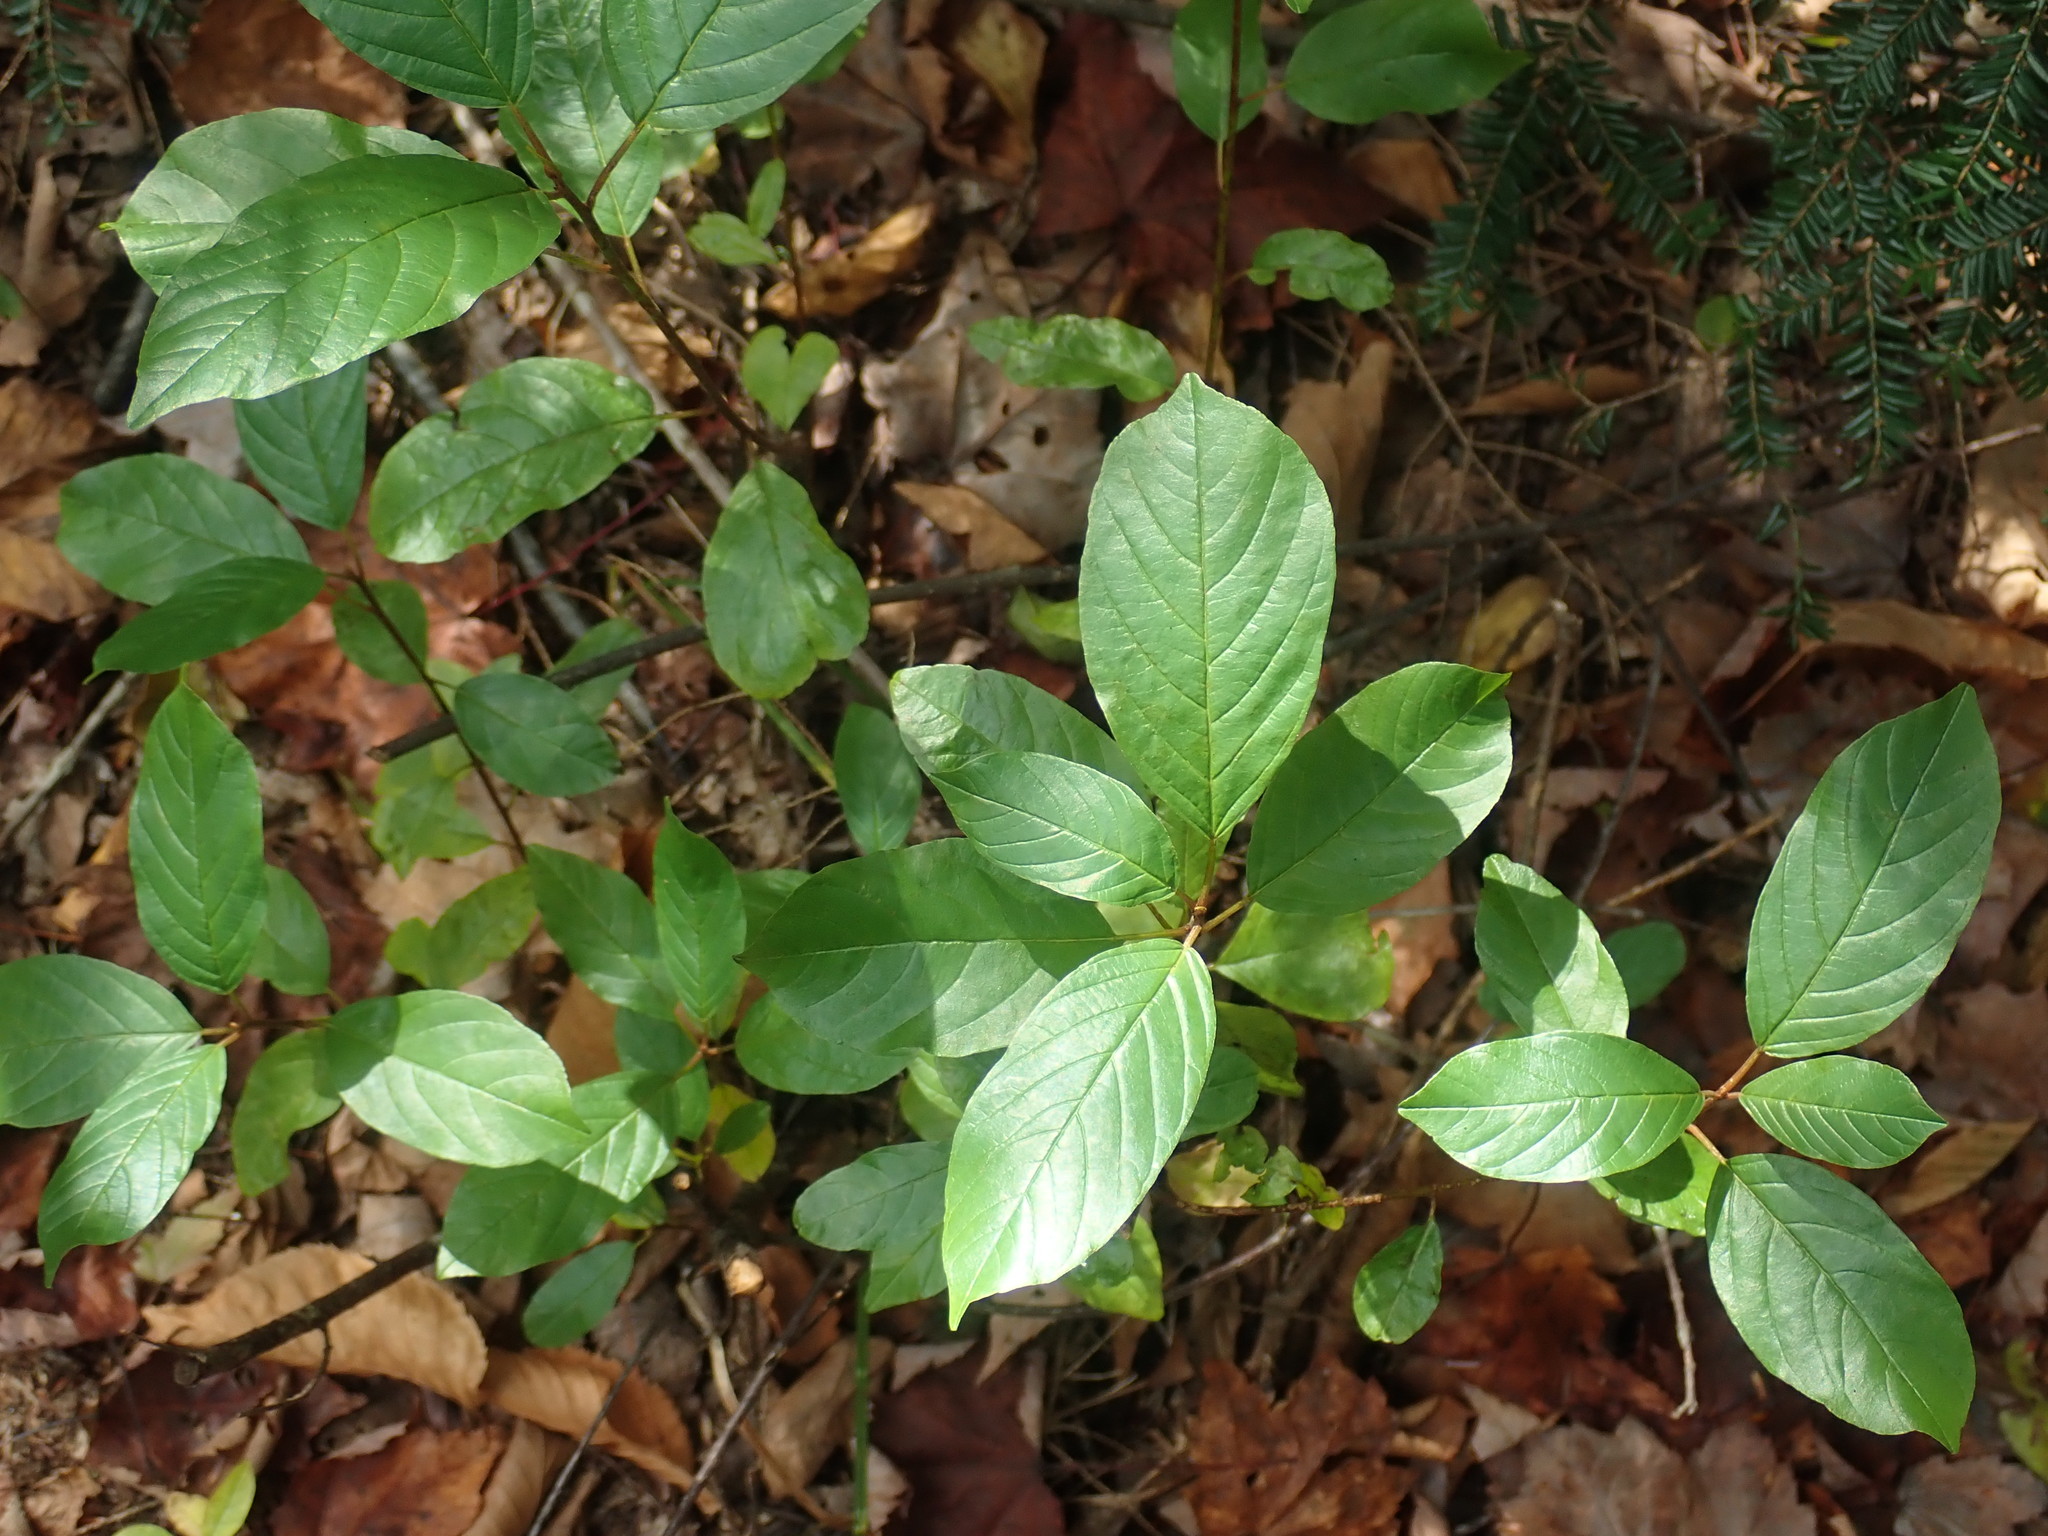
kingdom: Plantae
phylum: Tracheophyta
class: Magnoliopsida
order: Rosales
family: Rhamnaceae
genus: Frangula
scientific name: Frangula alnus
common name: Alder buckthorn
